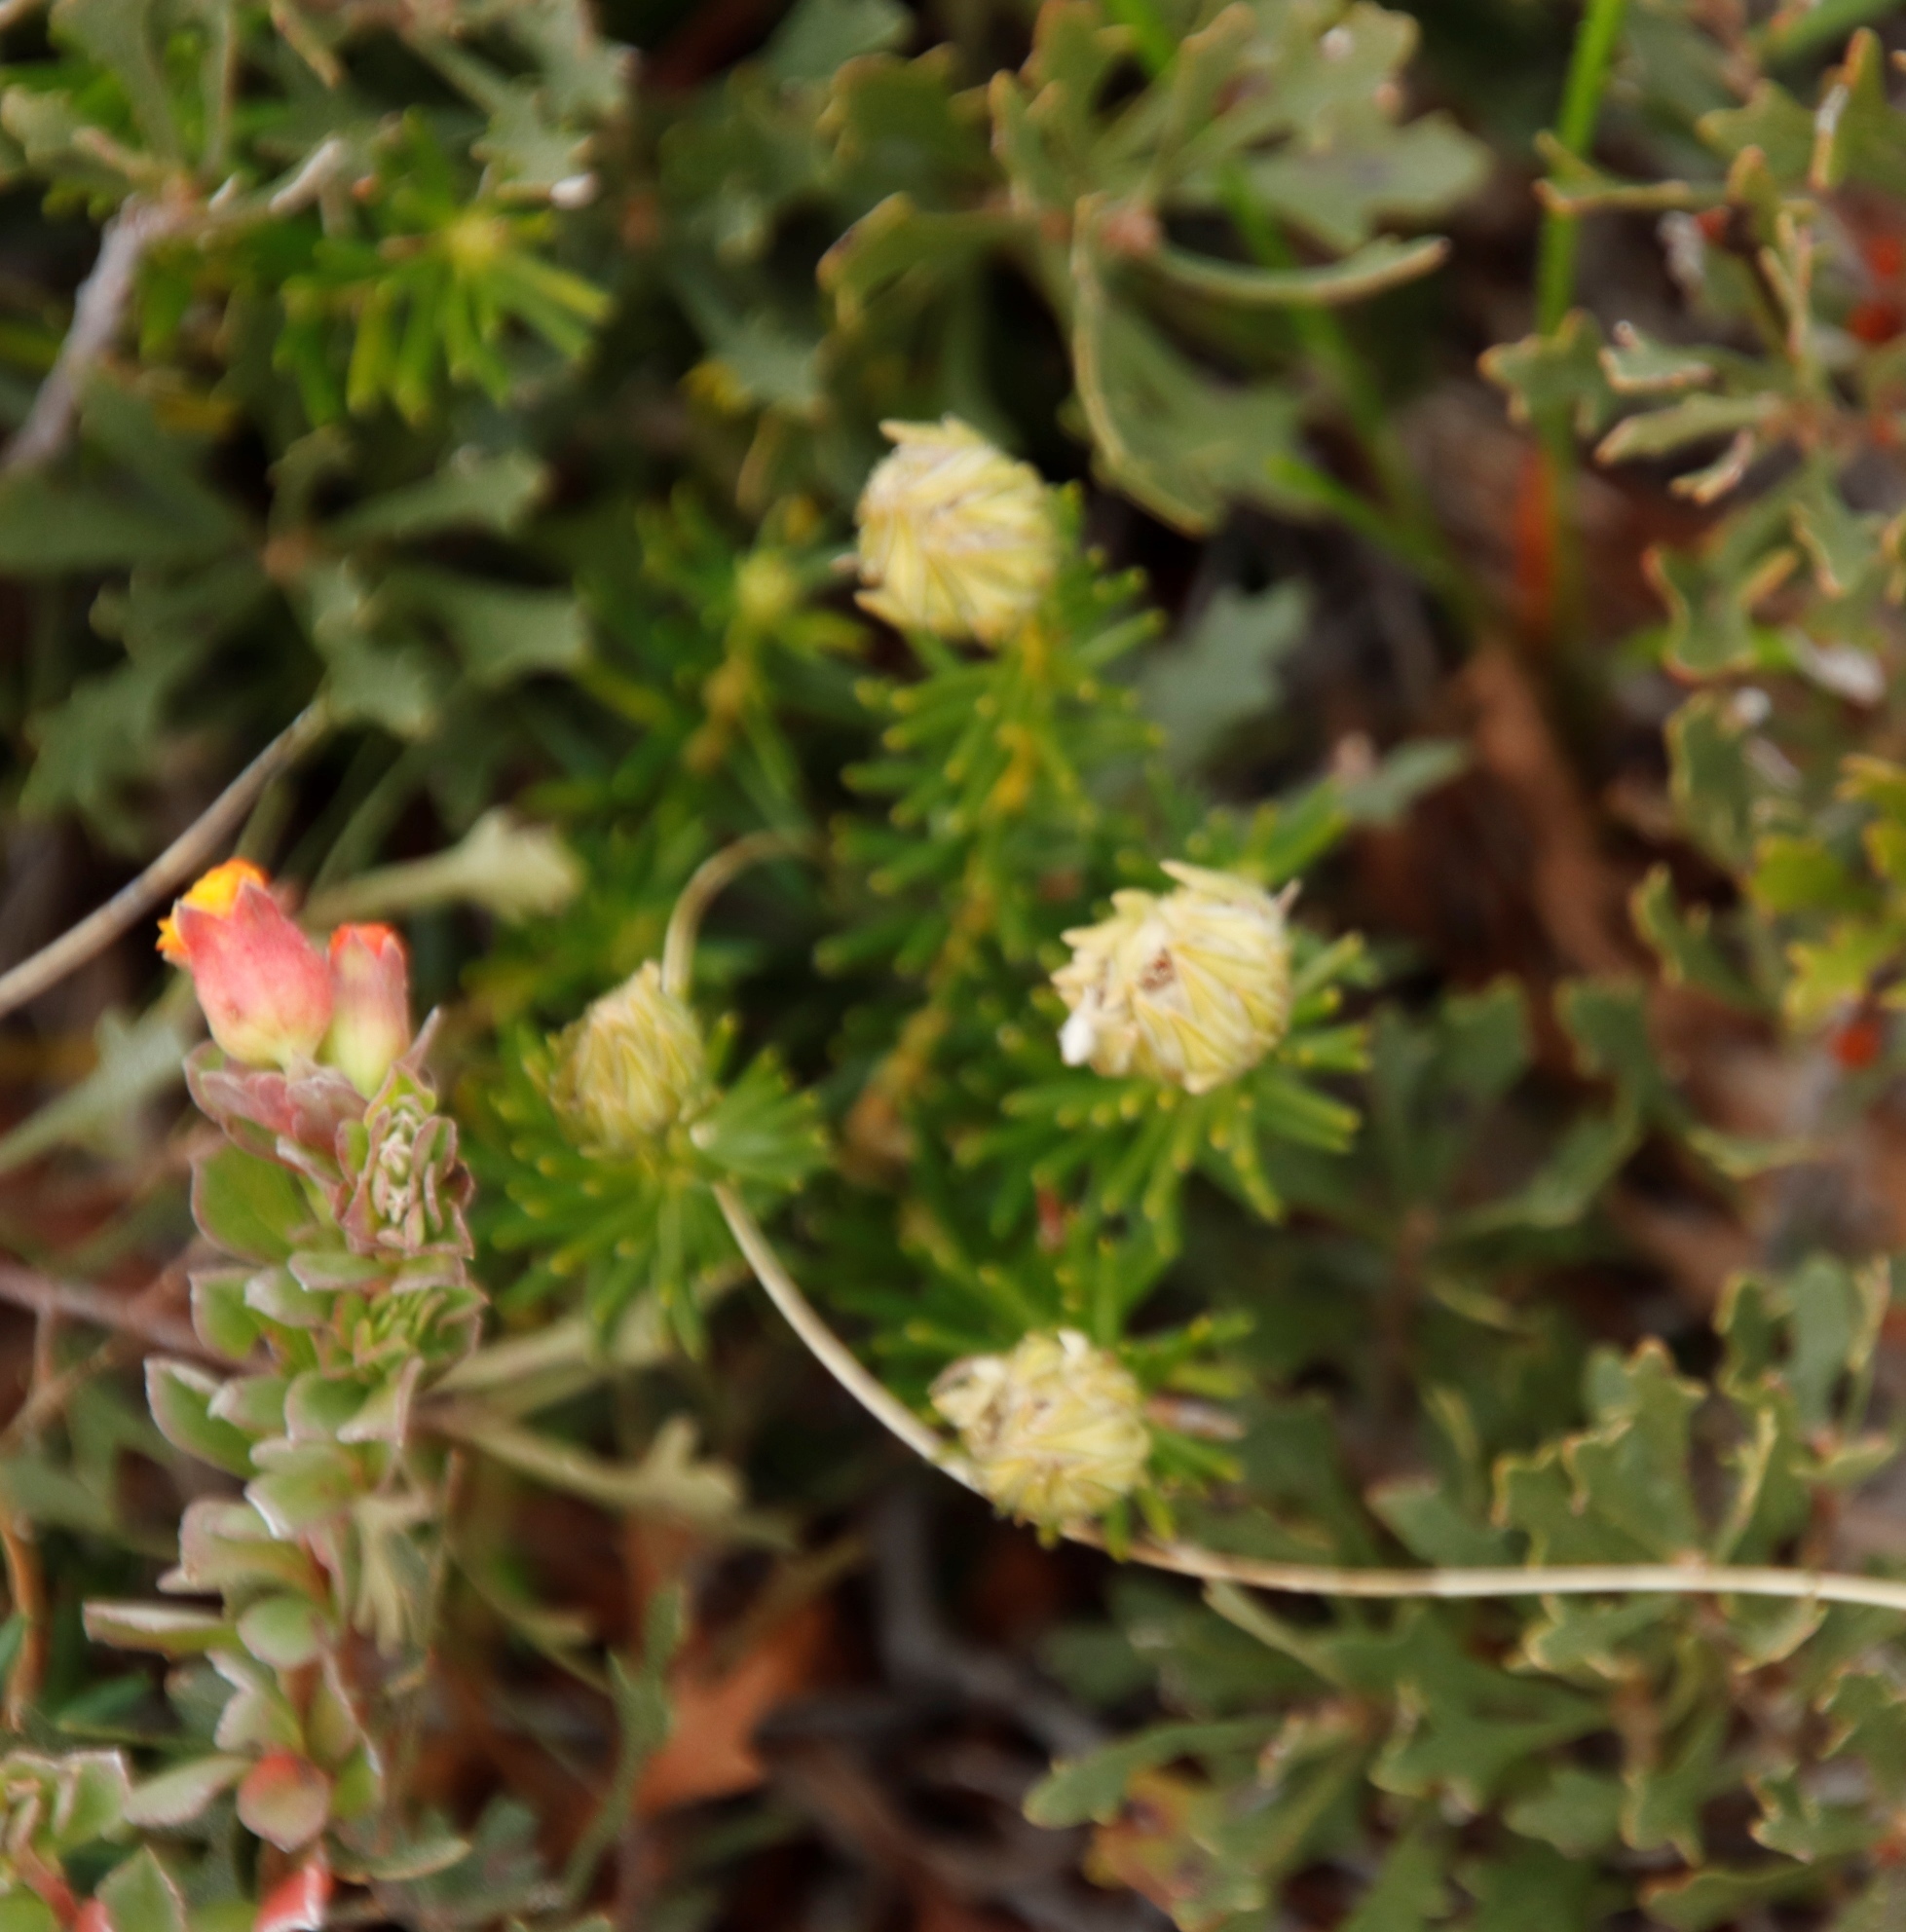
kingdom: Plantae
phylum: Tracheophyta
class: Magnoliopsida
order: Rosales
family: Rhamnaceae
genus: Phylica
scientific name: Phylica dodii
